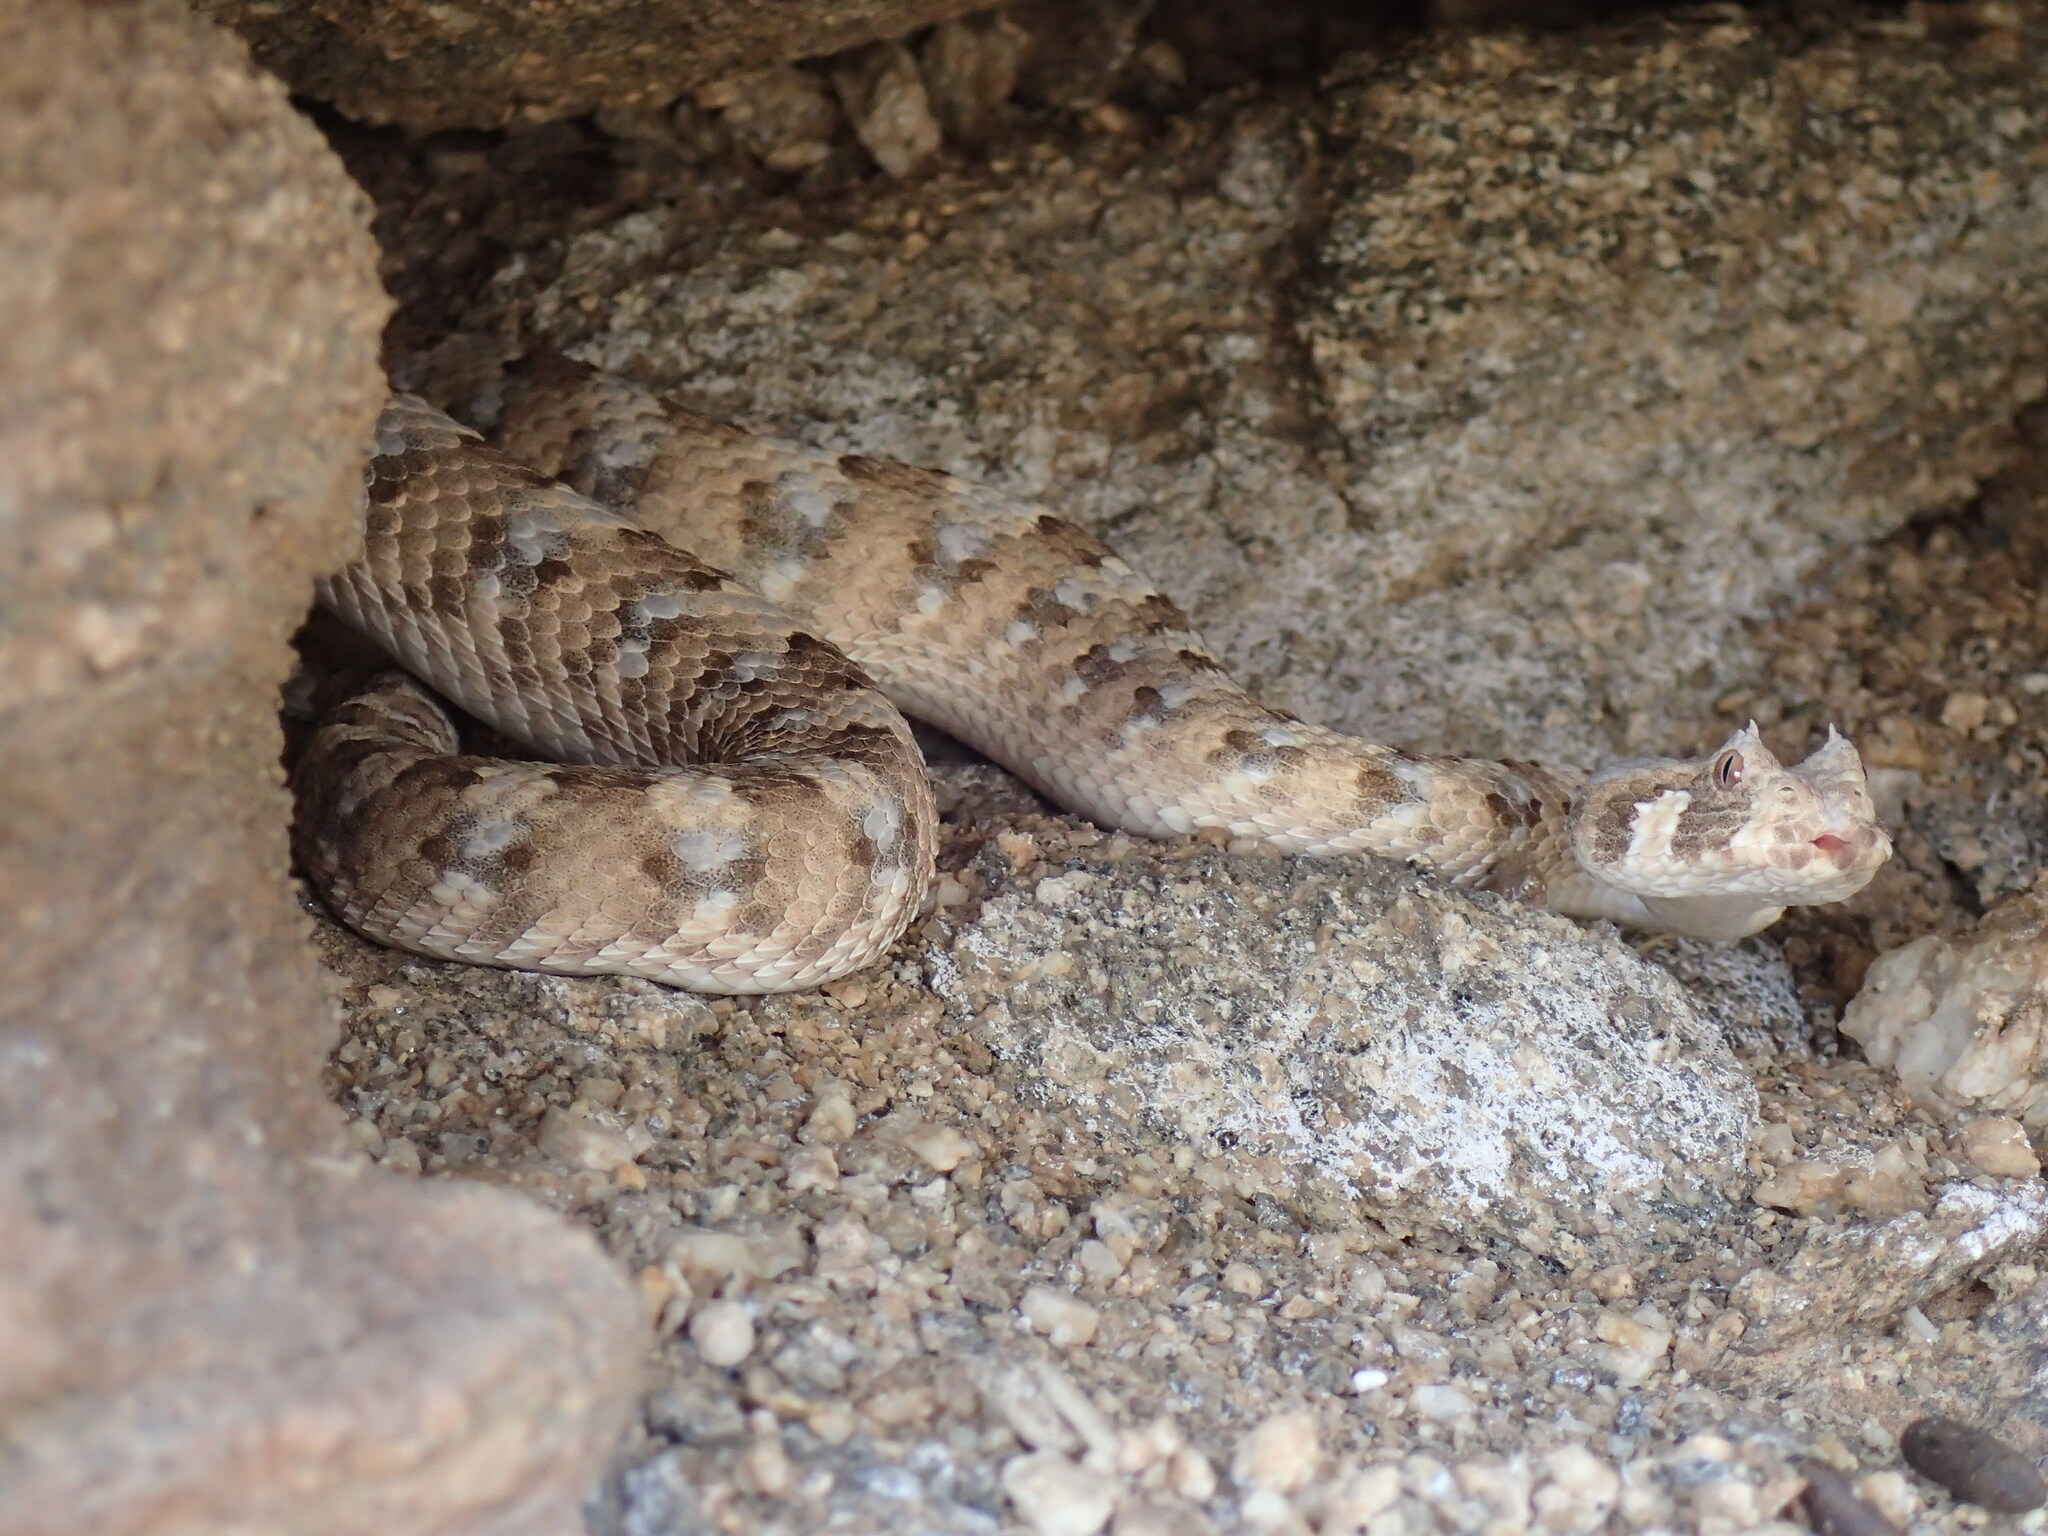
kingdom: Animalia
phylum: Chordata
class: Squamata
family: Viperidae
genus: Bitis
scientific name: Bitis caudalis
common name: Horned adder
